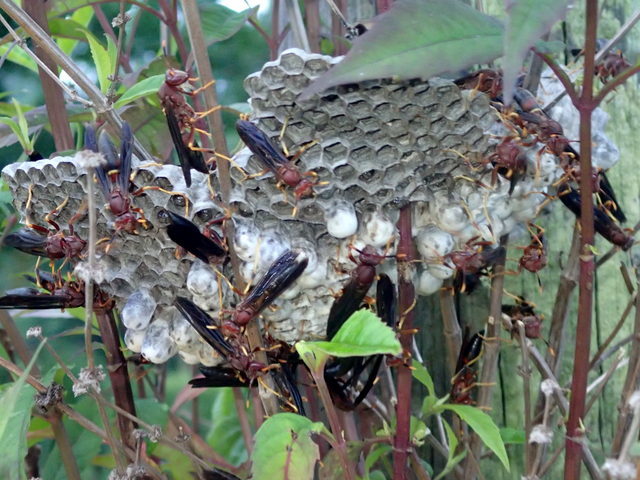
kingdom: Animalia
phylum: Arthropoda
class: Insecta
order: Hymenoptera
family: Eumenidae
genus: Polistes
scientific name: Polistes annularis
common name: Ringed paper wasp
